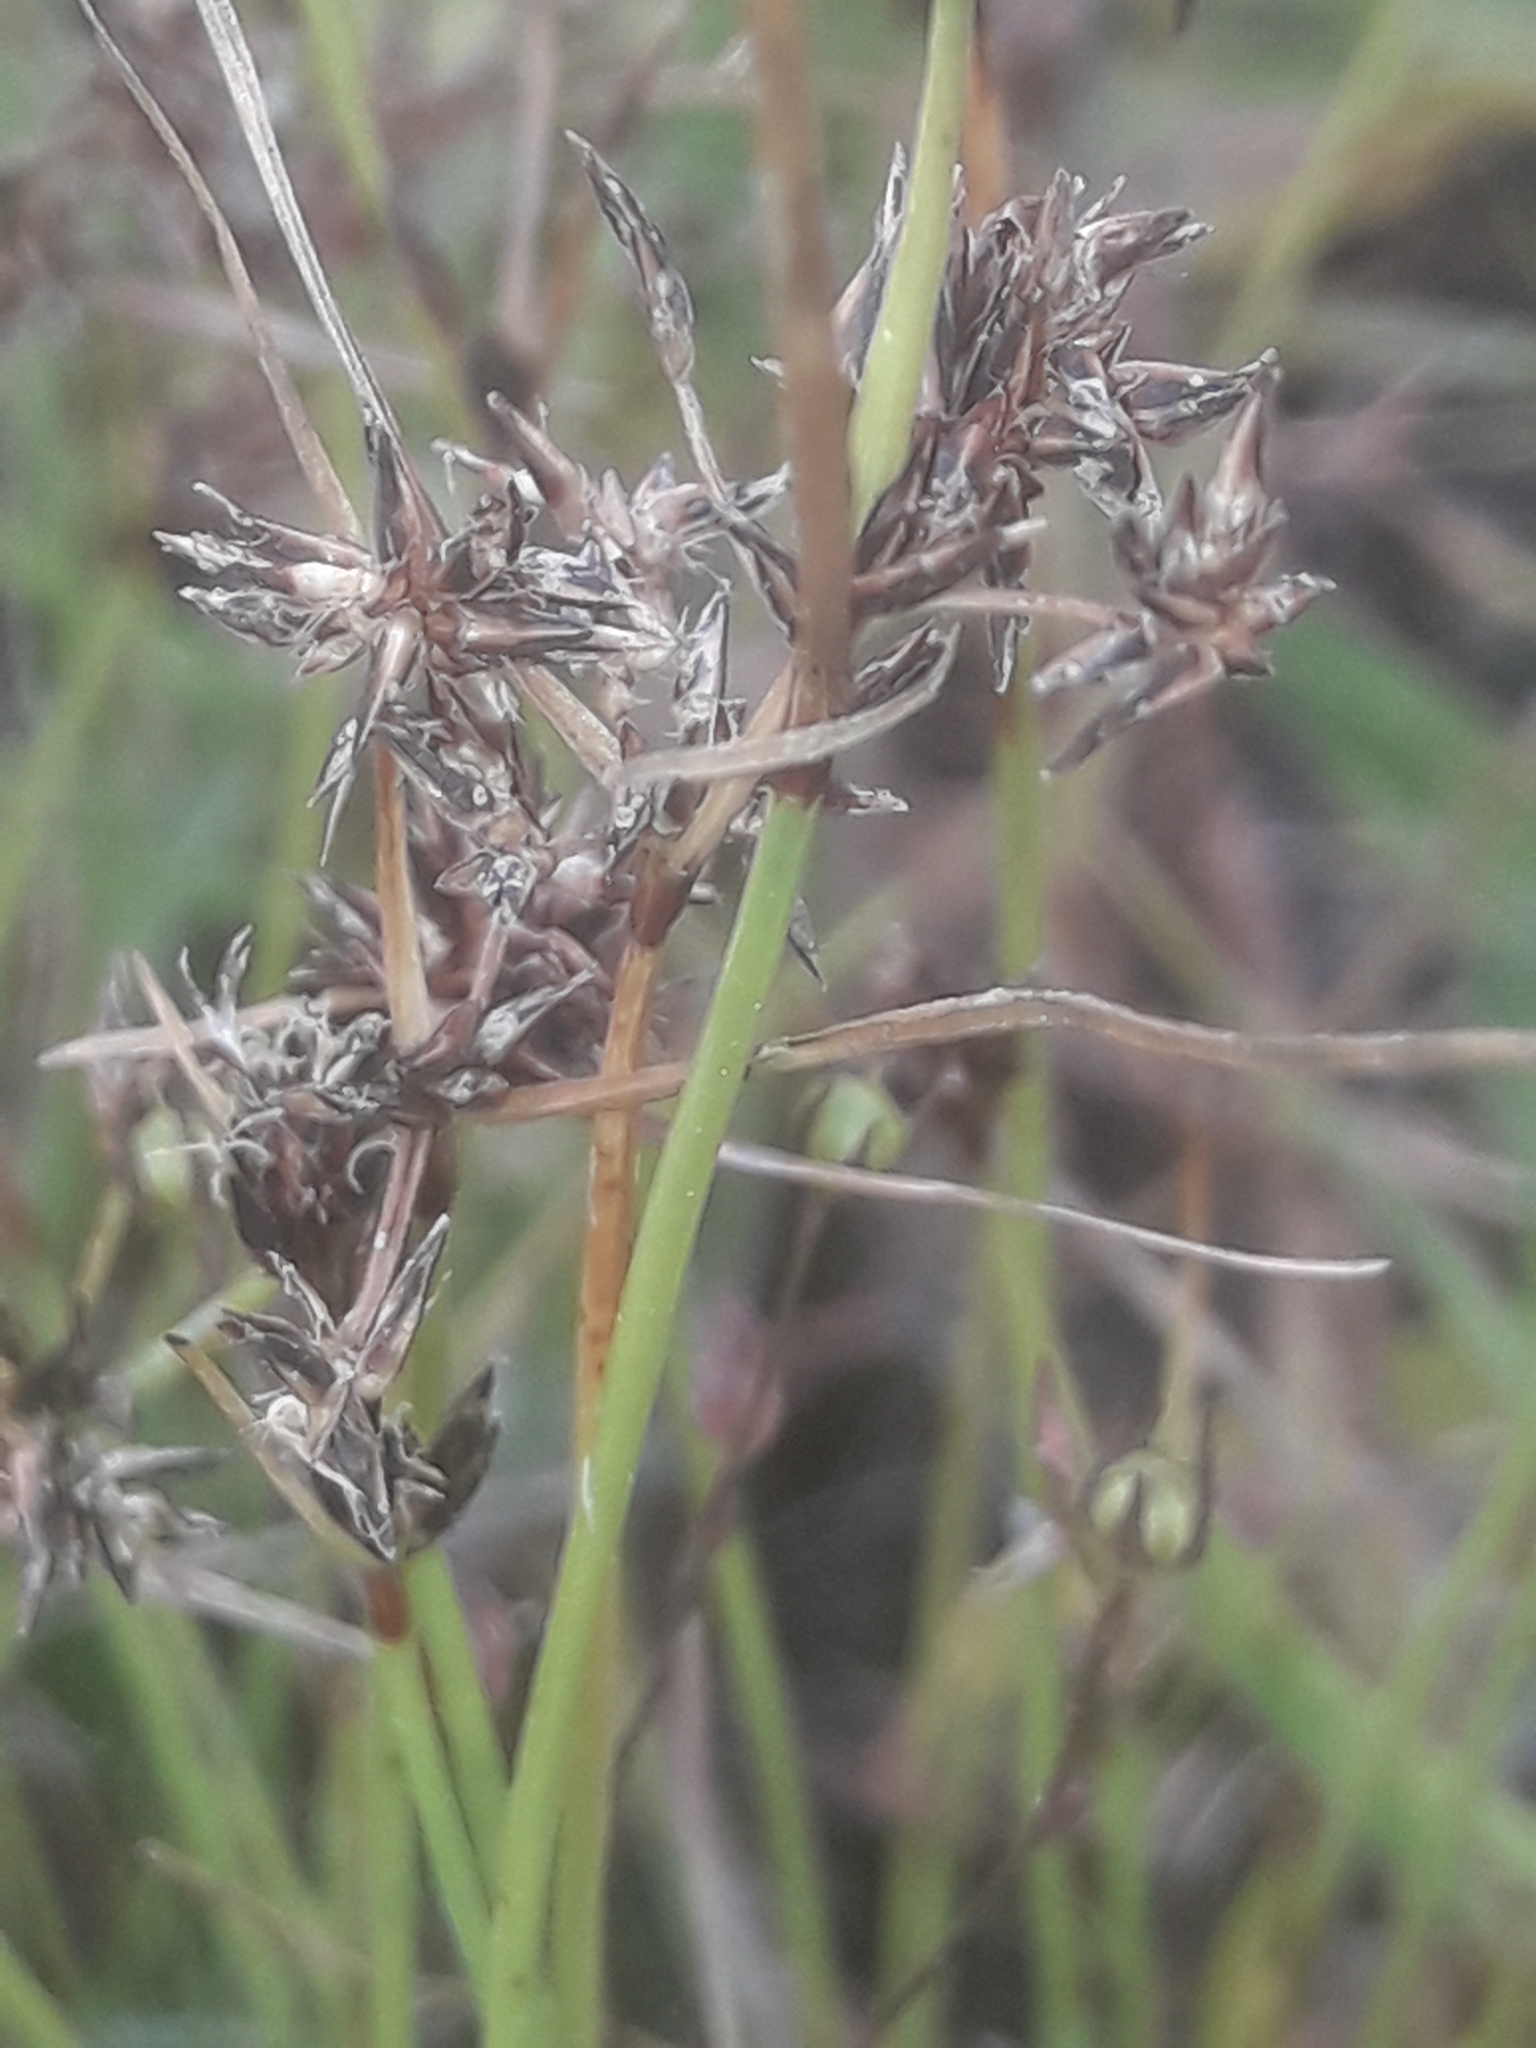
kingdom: Plantae
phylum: Tracheophyta
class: Liliopsida
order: Poales
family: Cyperaceae
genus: Schoenus
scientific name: Schoenus apogon
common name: Smooth bogrush
